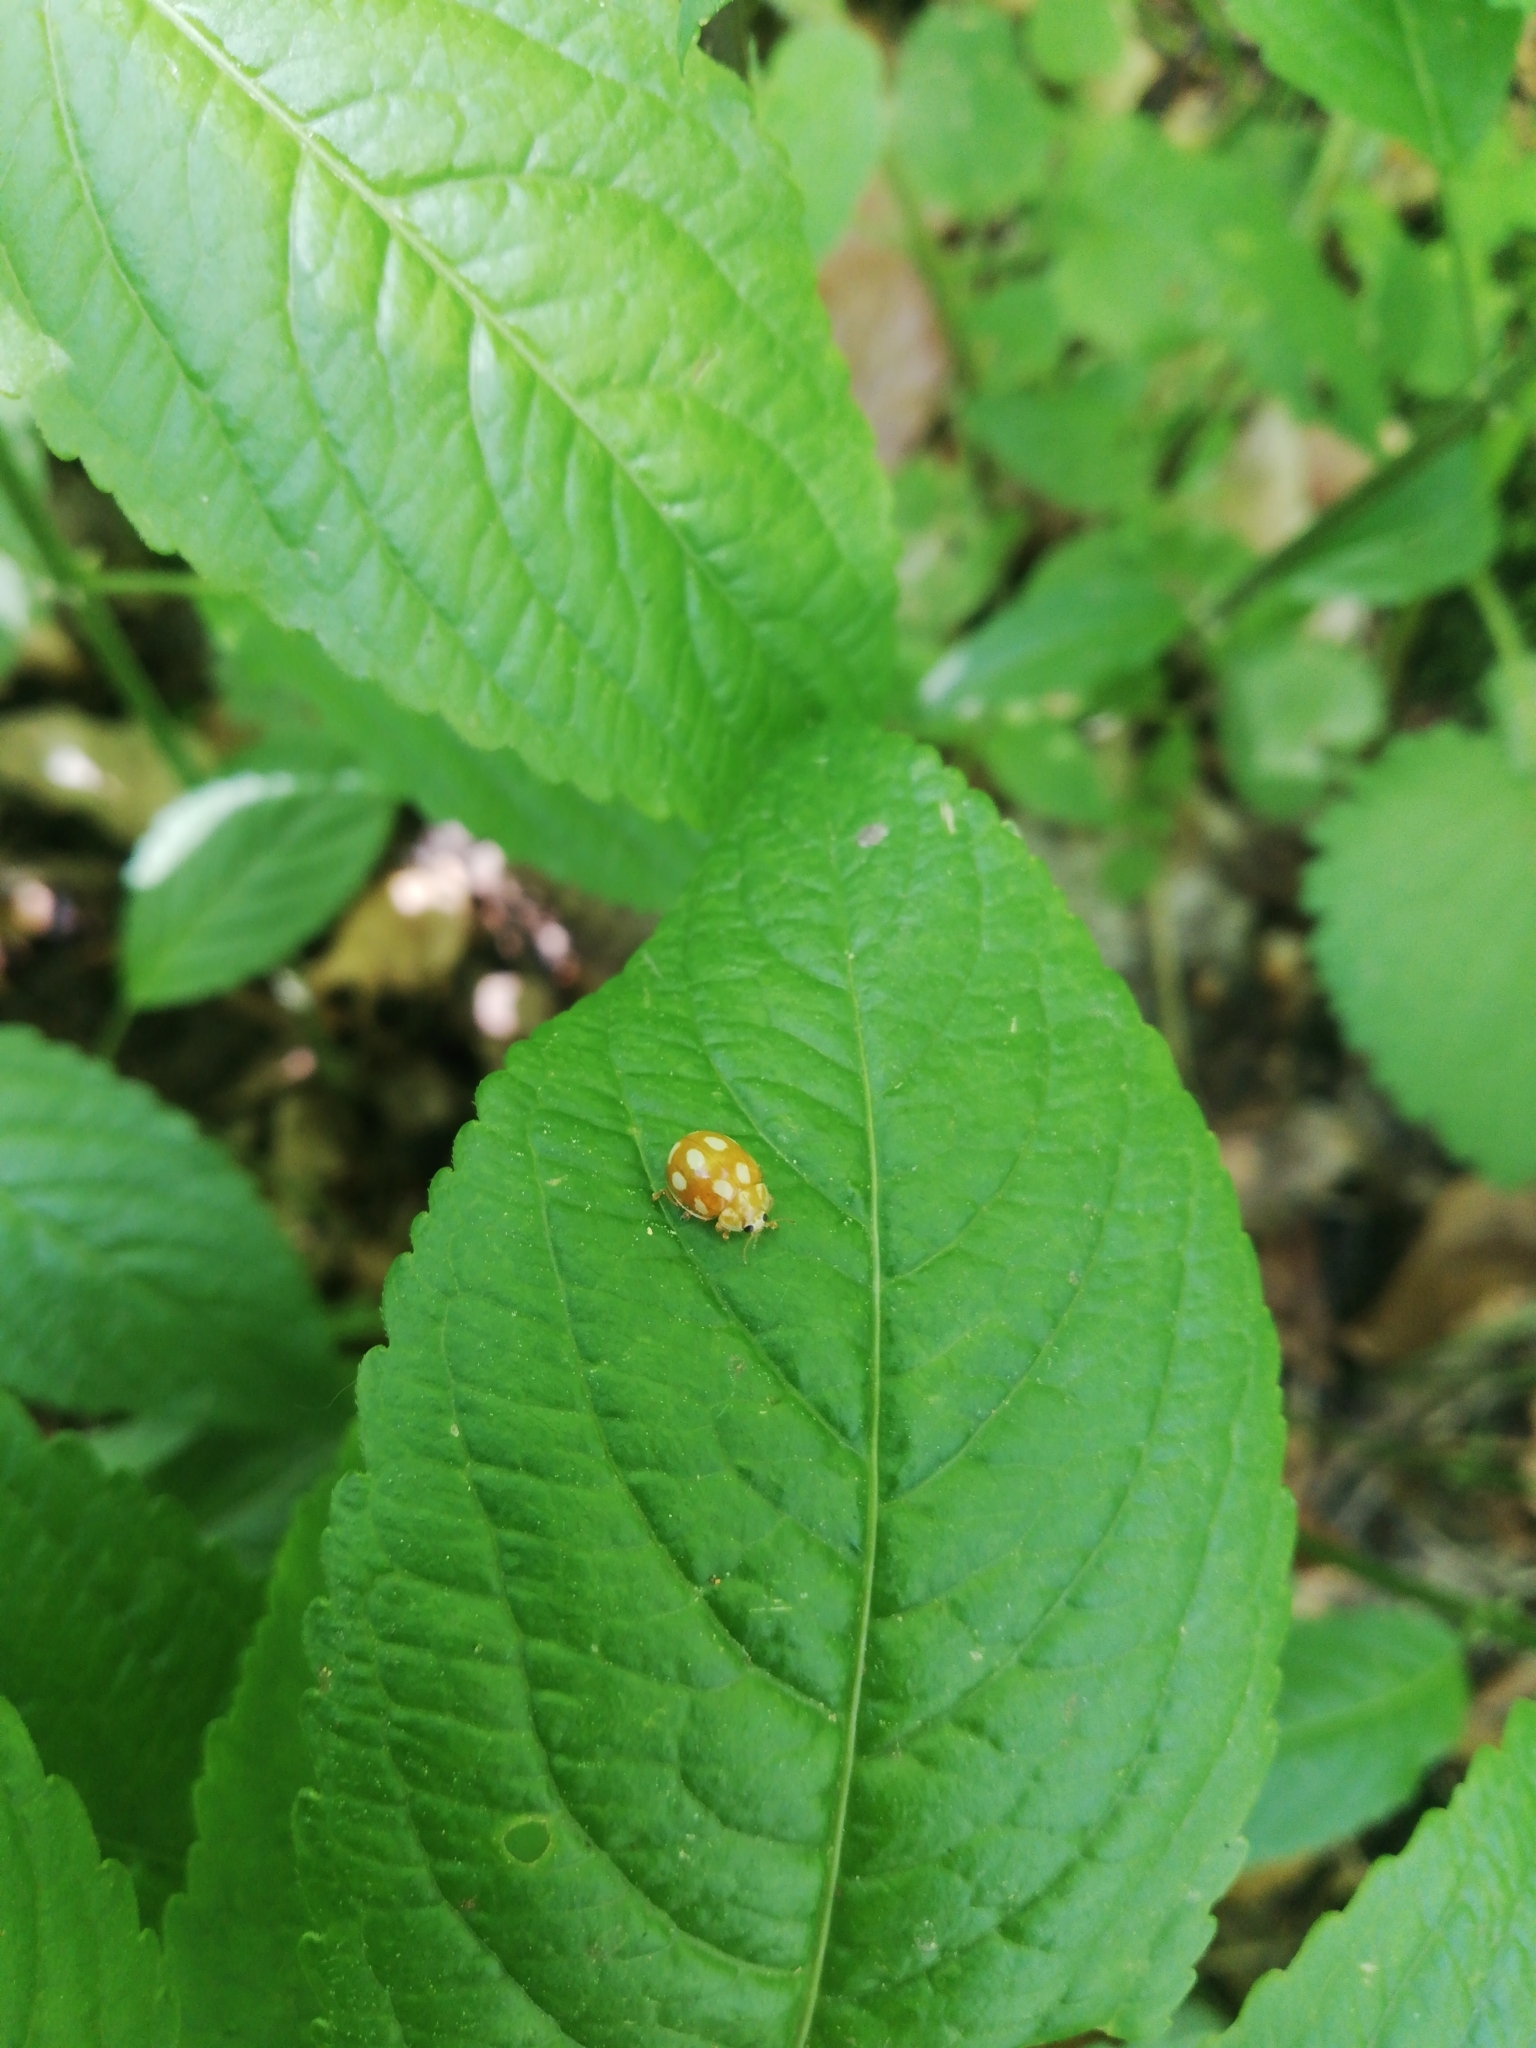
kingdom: Animalia
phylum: Arthropoda
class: Insecta
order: Coleoptera
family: Coccinellidae
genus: Calvia
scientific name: Calvia decemguttata
